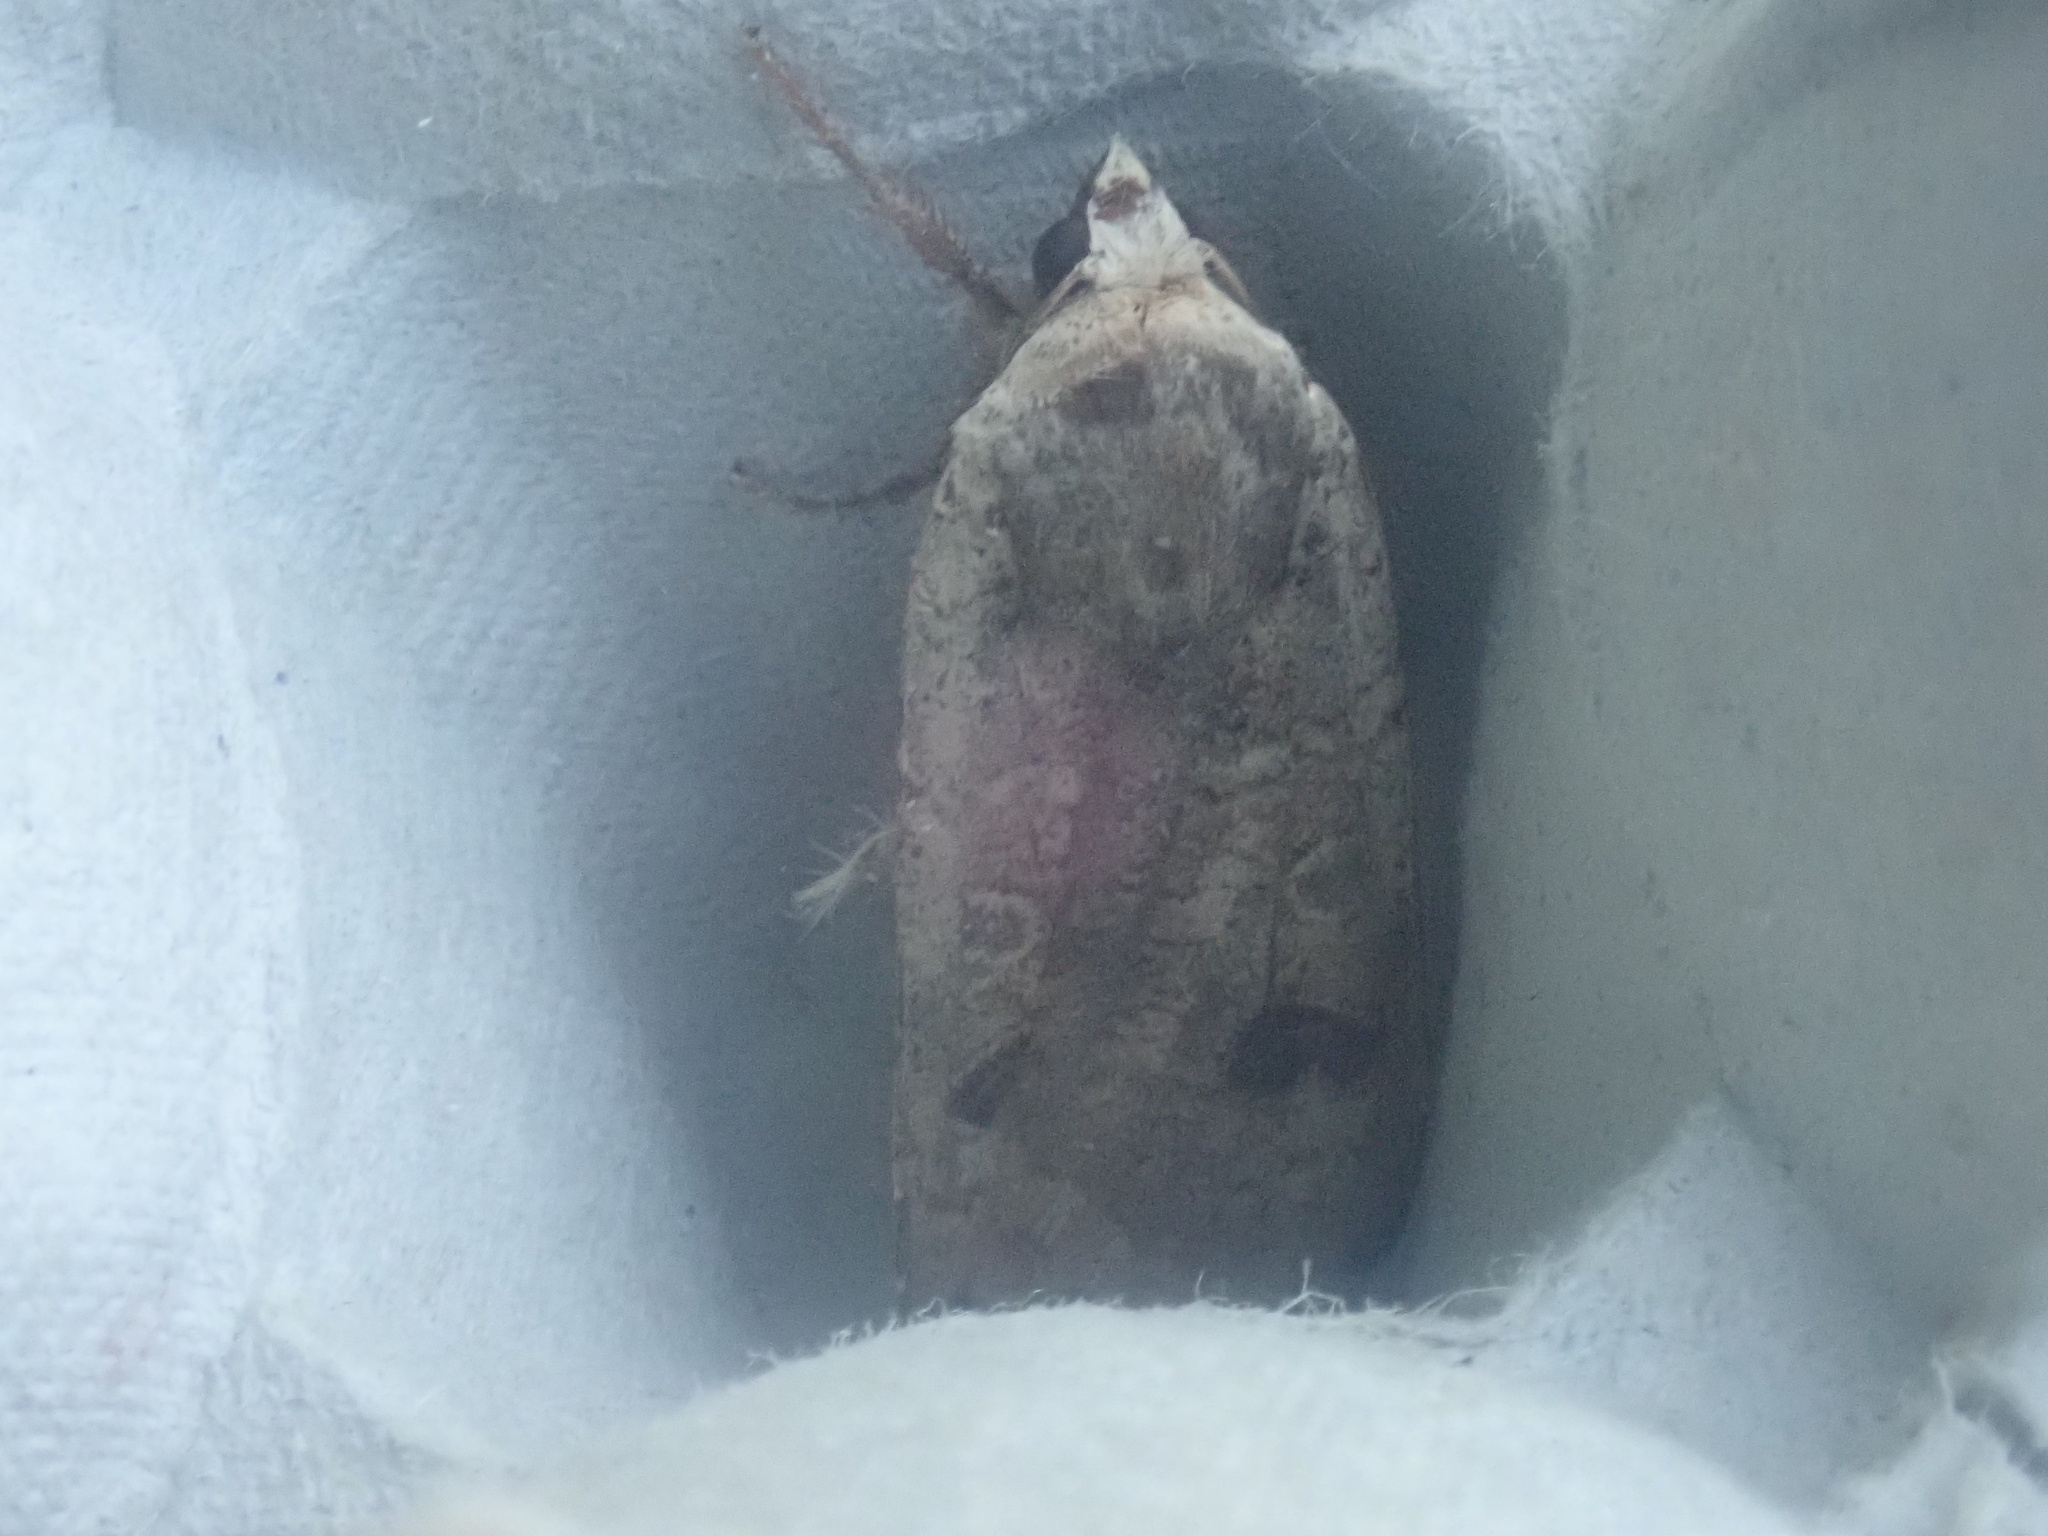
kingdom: Animalia
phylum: Arthropoda
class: Insecta
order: Lepidoptera
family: Noctuidae
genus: Noctua
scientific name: Noctua pronuba
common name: Large yellow underwing
